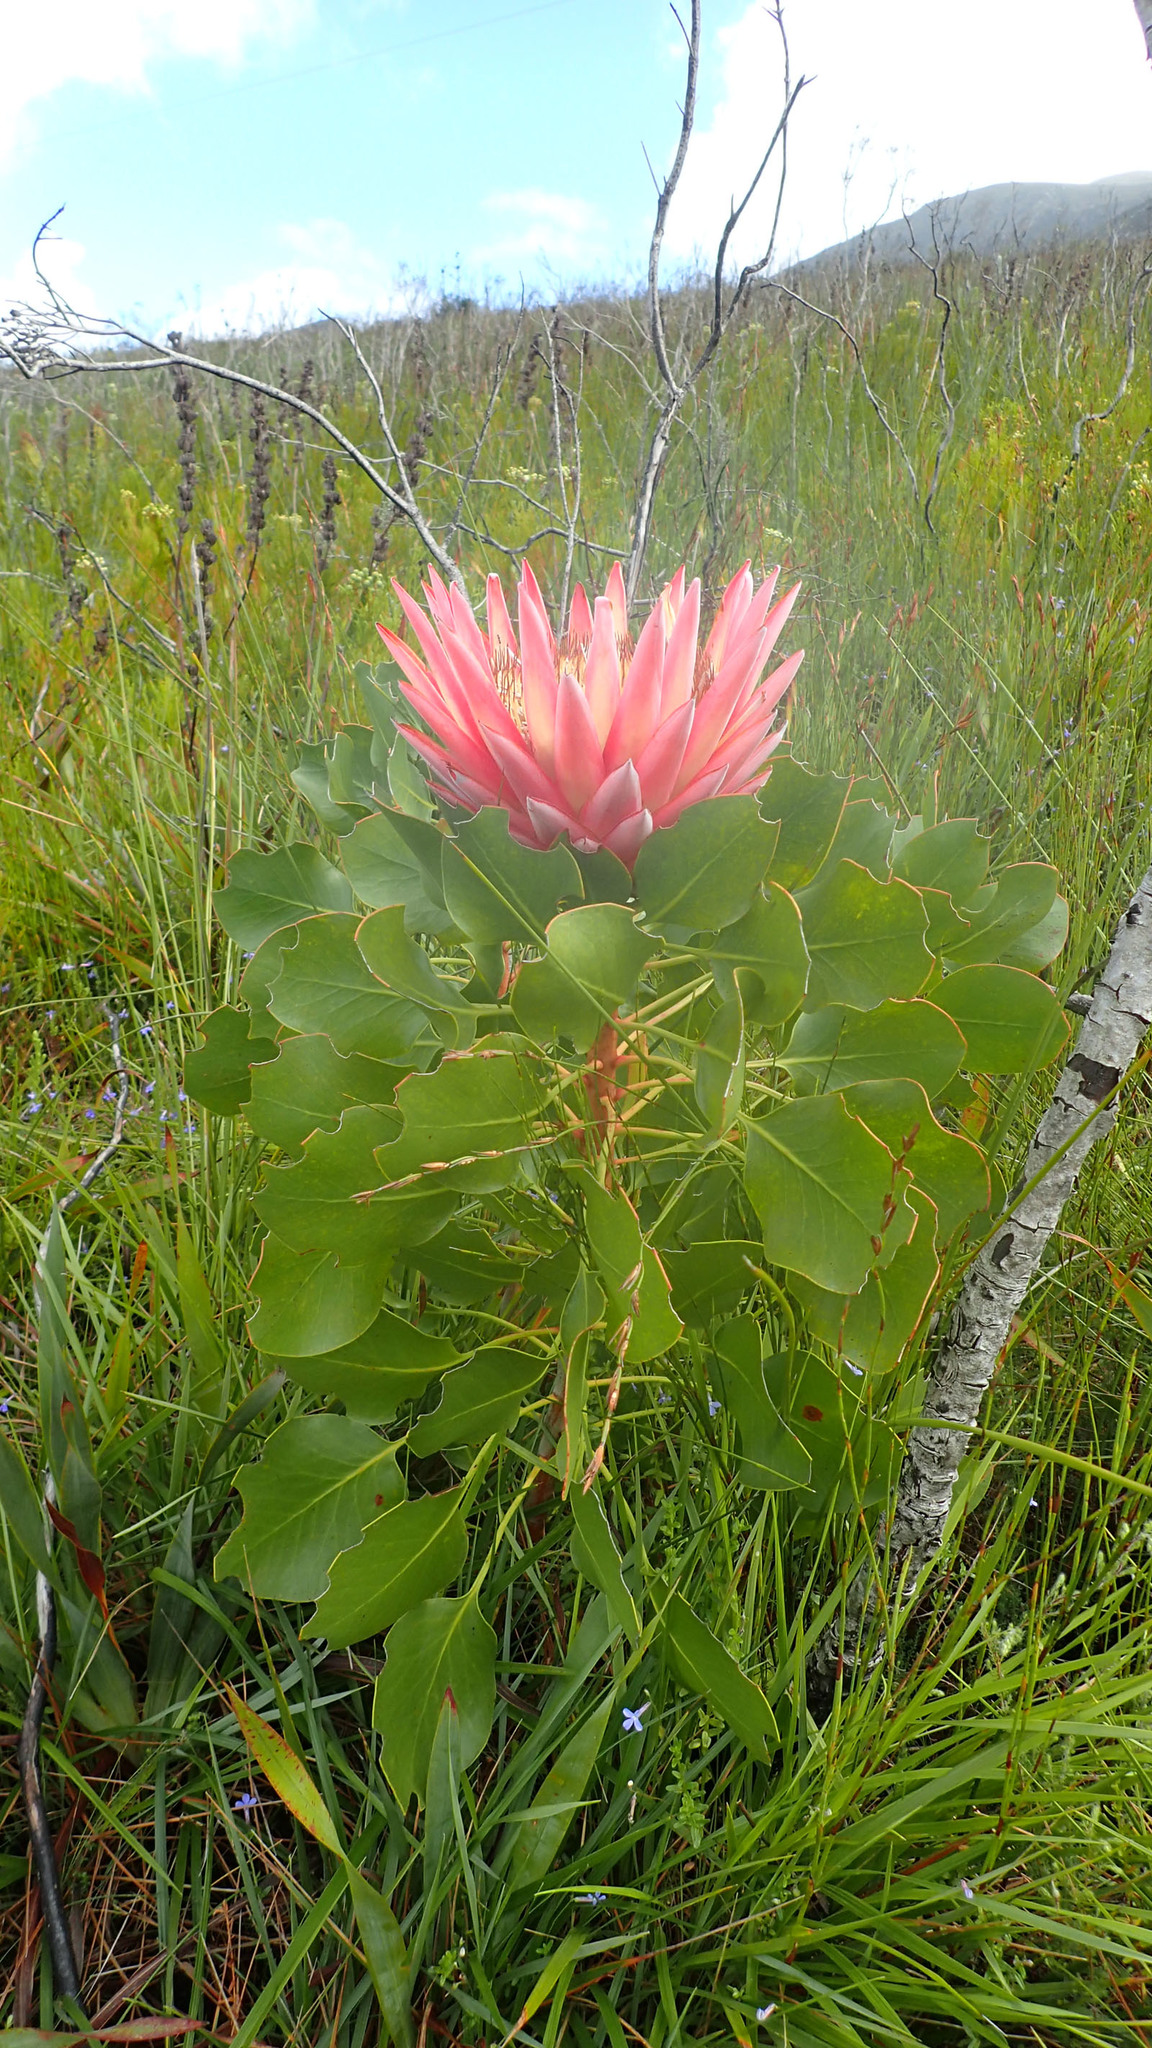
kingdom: Plantae
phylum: Tracheophyta
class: Magnoliopsida
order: Proteales
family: Proteaceae
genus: Protea
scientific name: Protea cynaroides
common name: King protea
